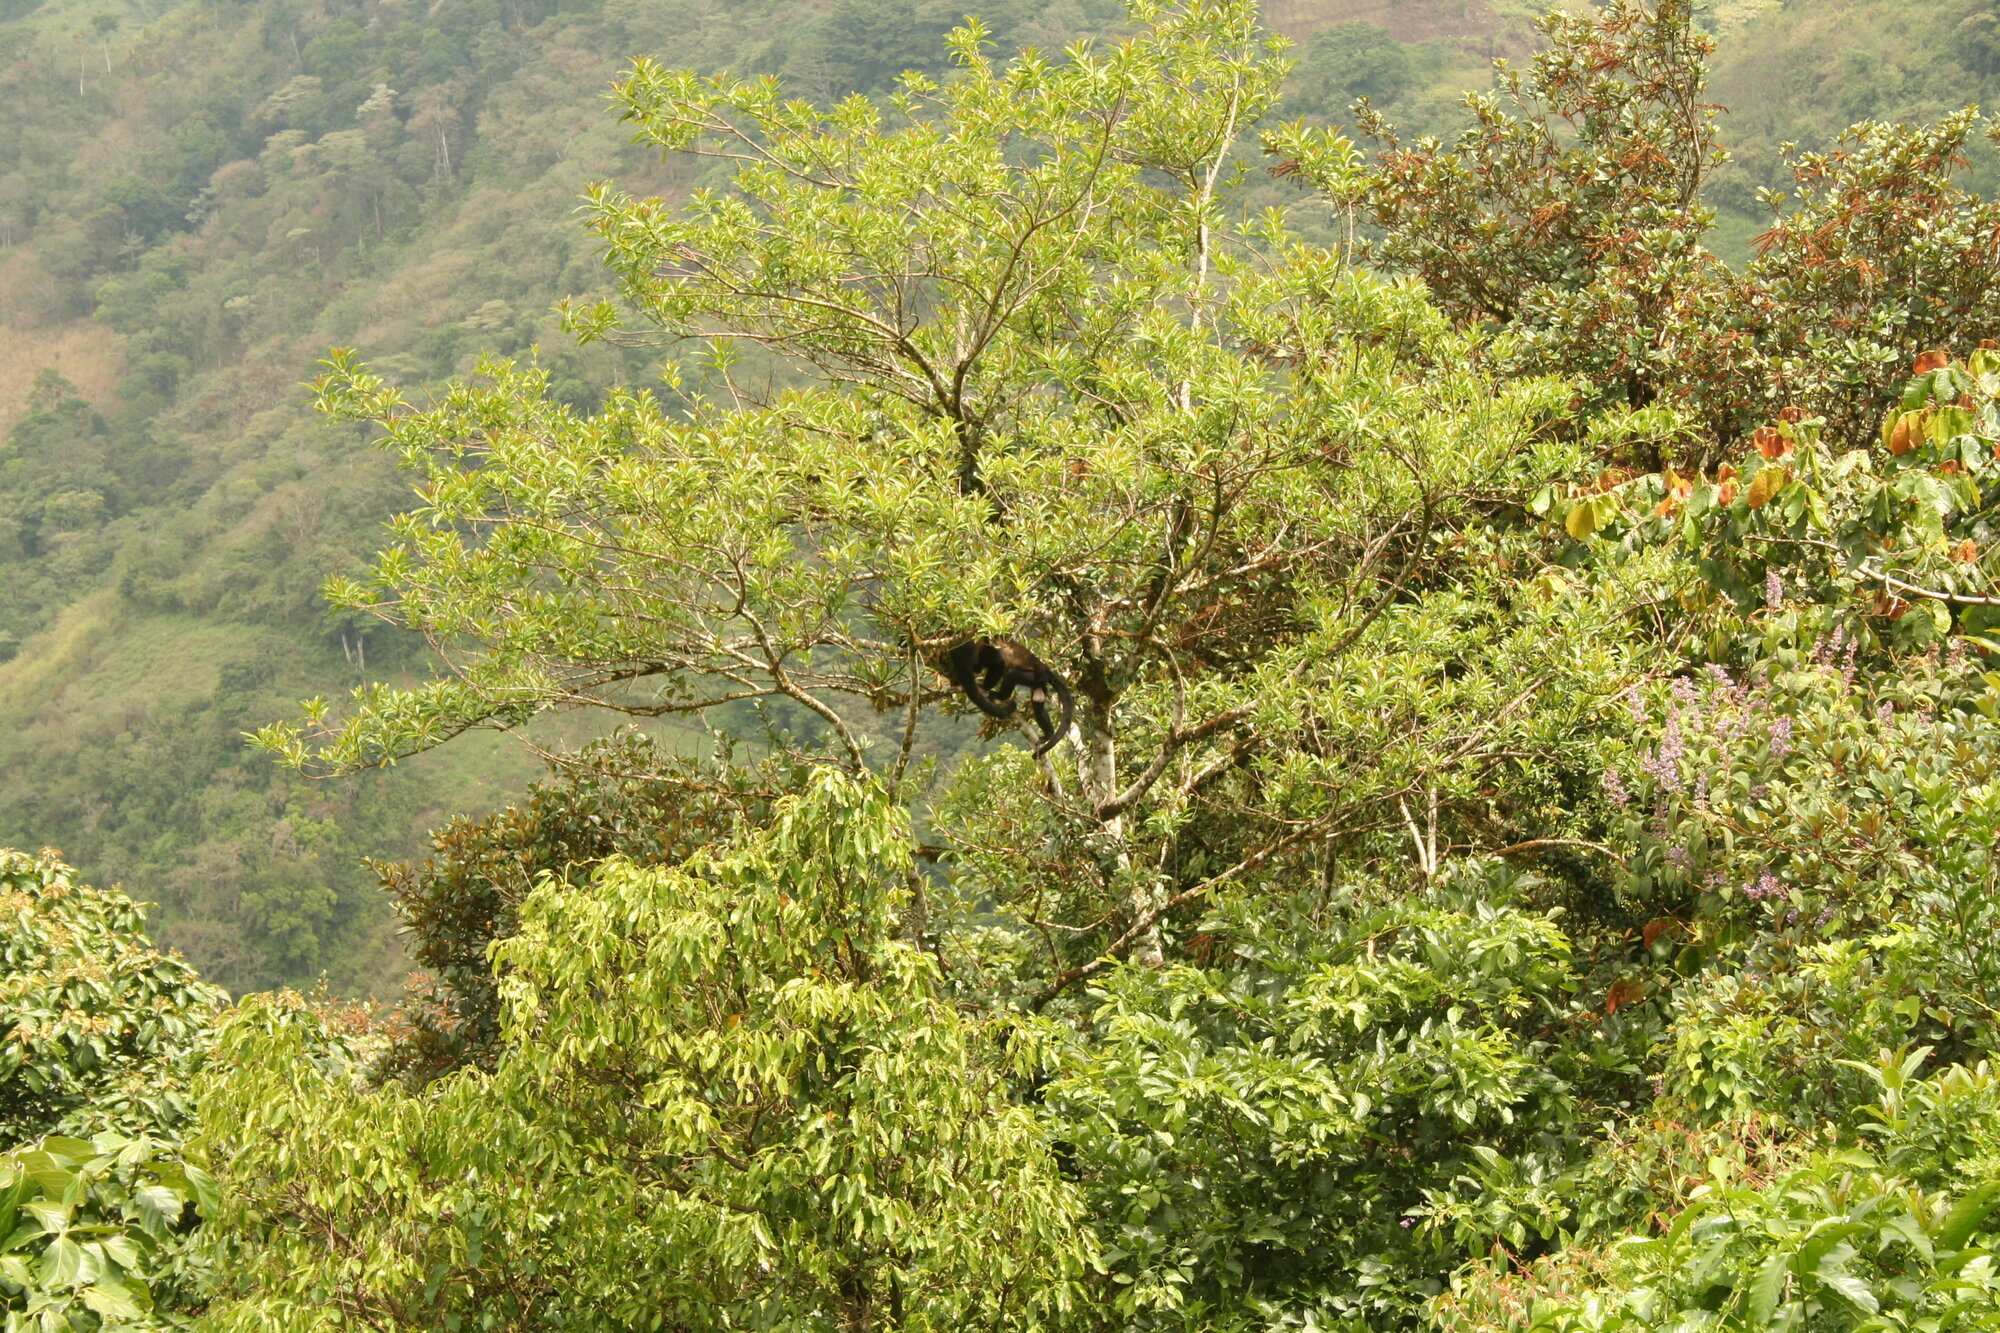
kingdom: Animalia
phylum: Chordata
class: Mammalia
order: Primates
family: Atelidae
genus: Alouatta
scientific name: Alouatta palliata
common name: Mantled howler
